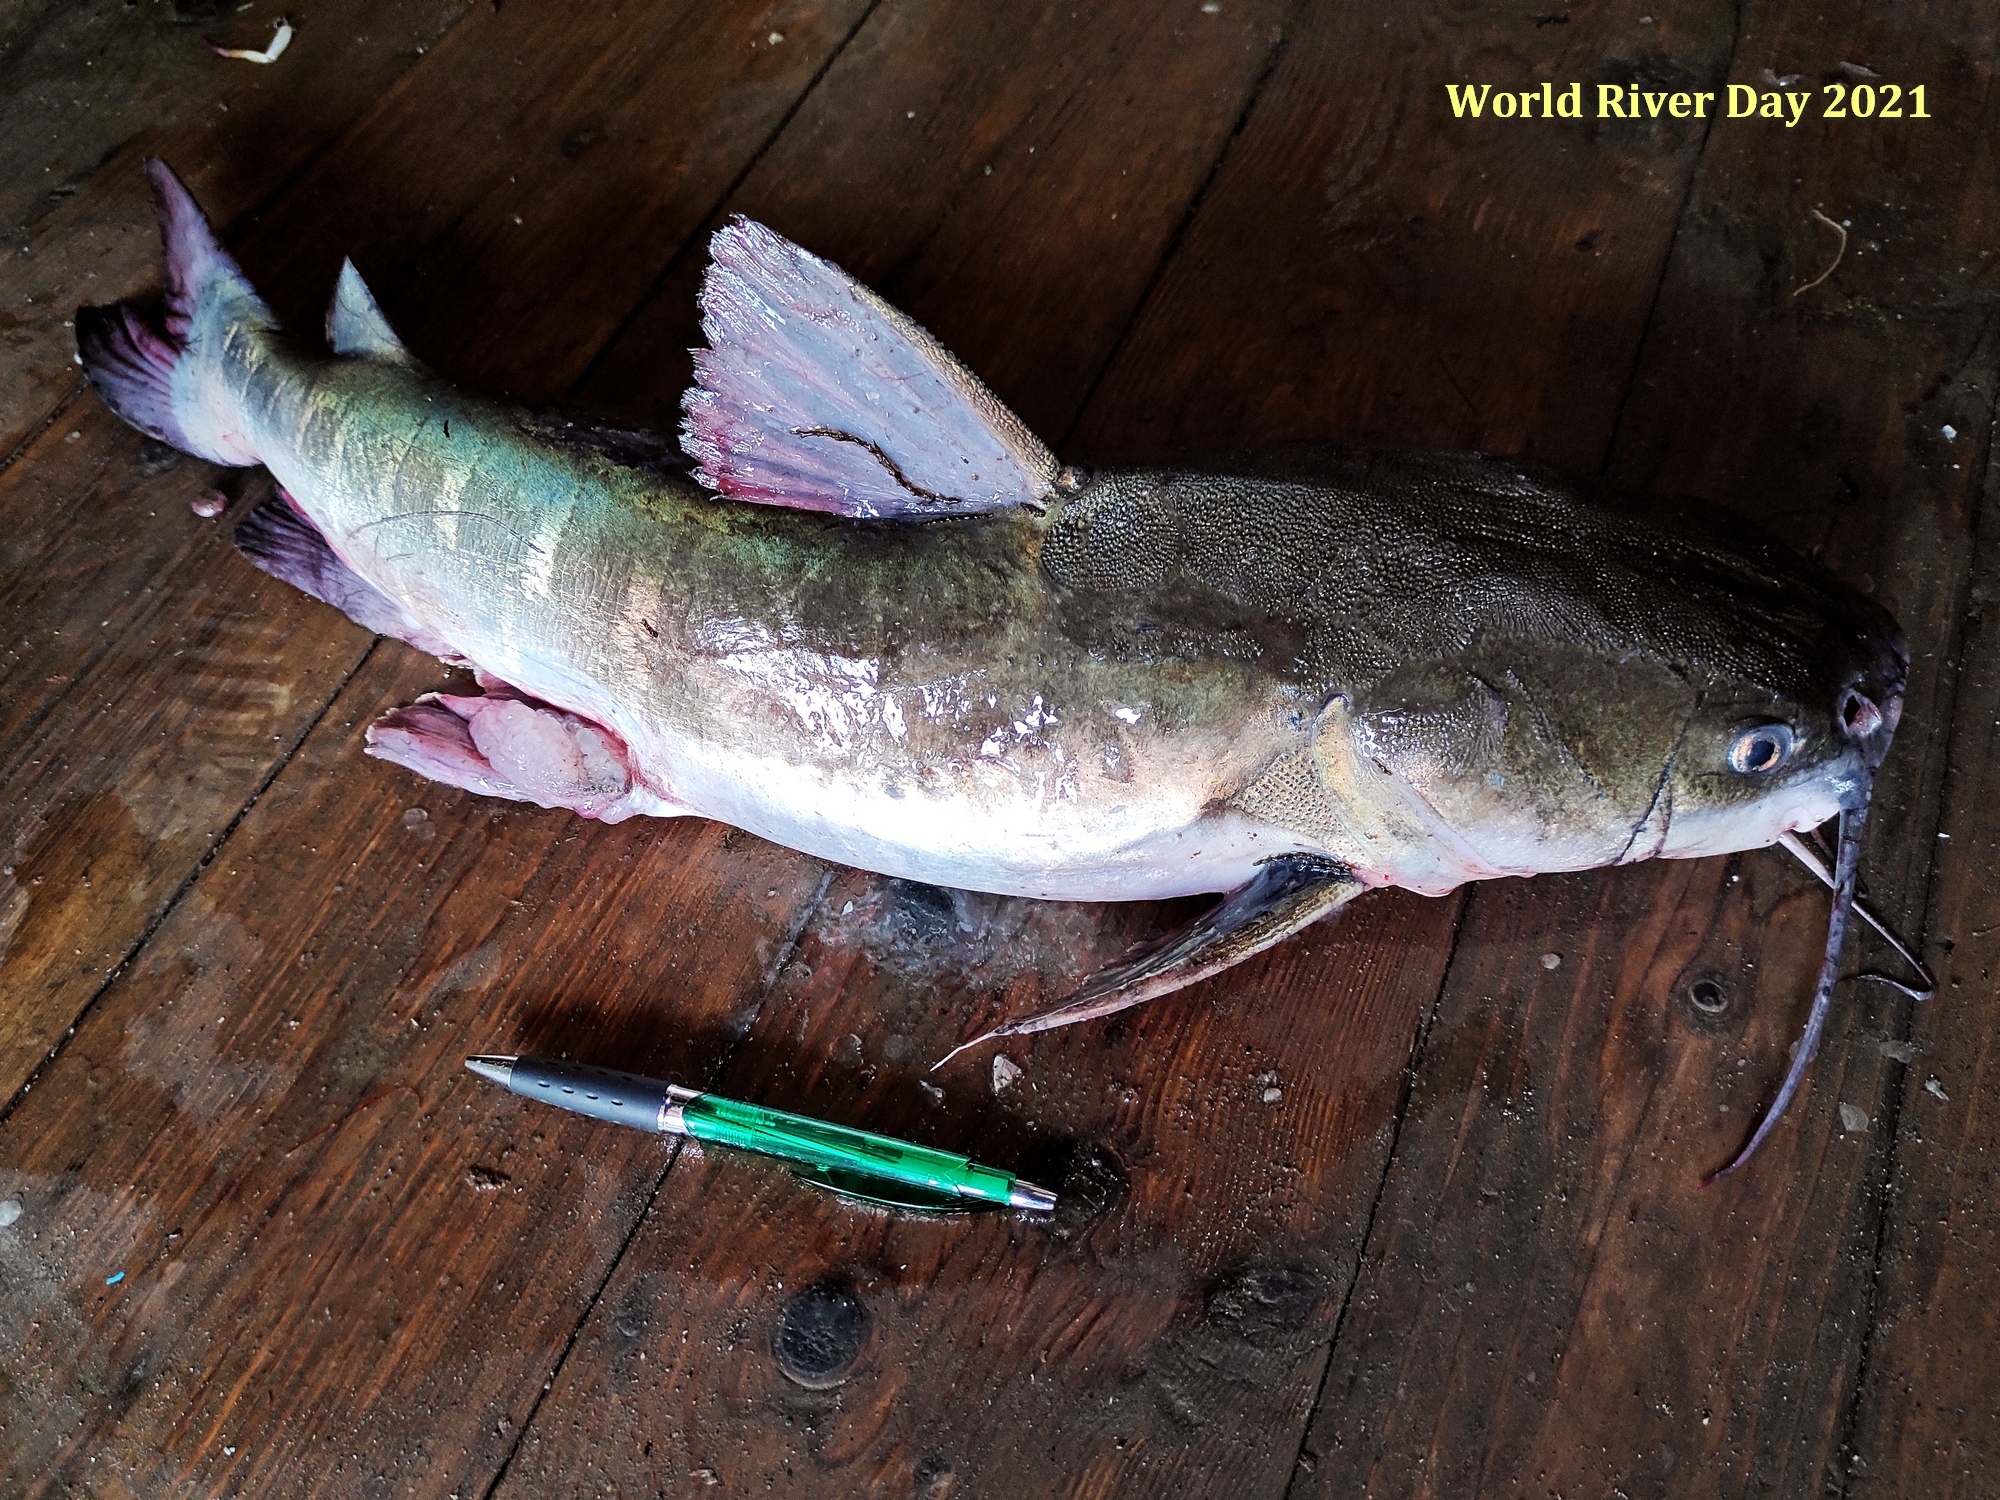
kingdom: Animalia
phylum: Chordata
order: Siluriformes
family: Ariidae
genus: Hexanematichthys
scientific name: Hexanematichthys sagor
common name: Sagor catfish
